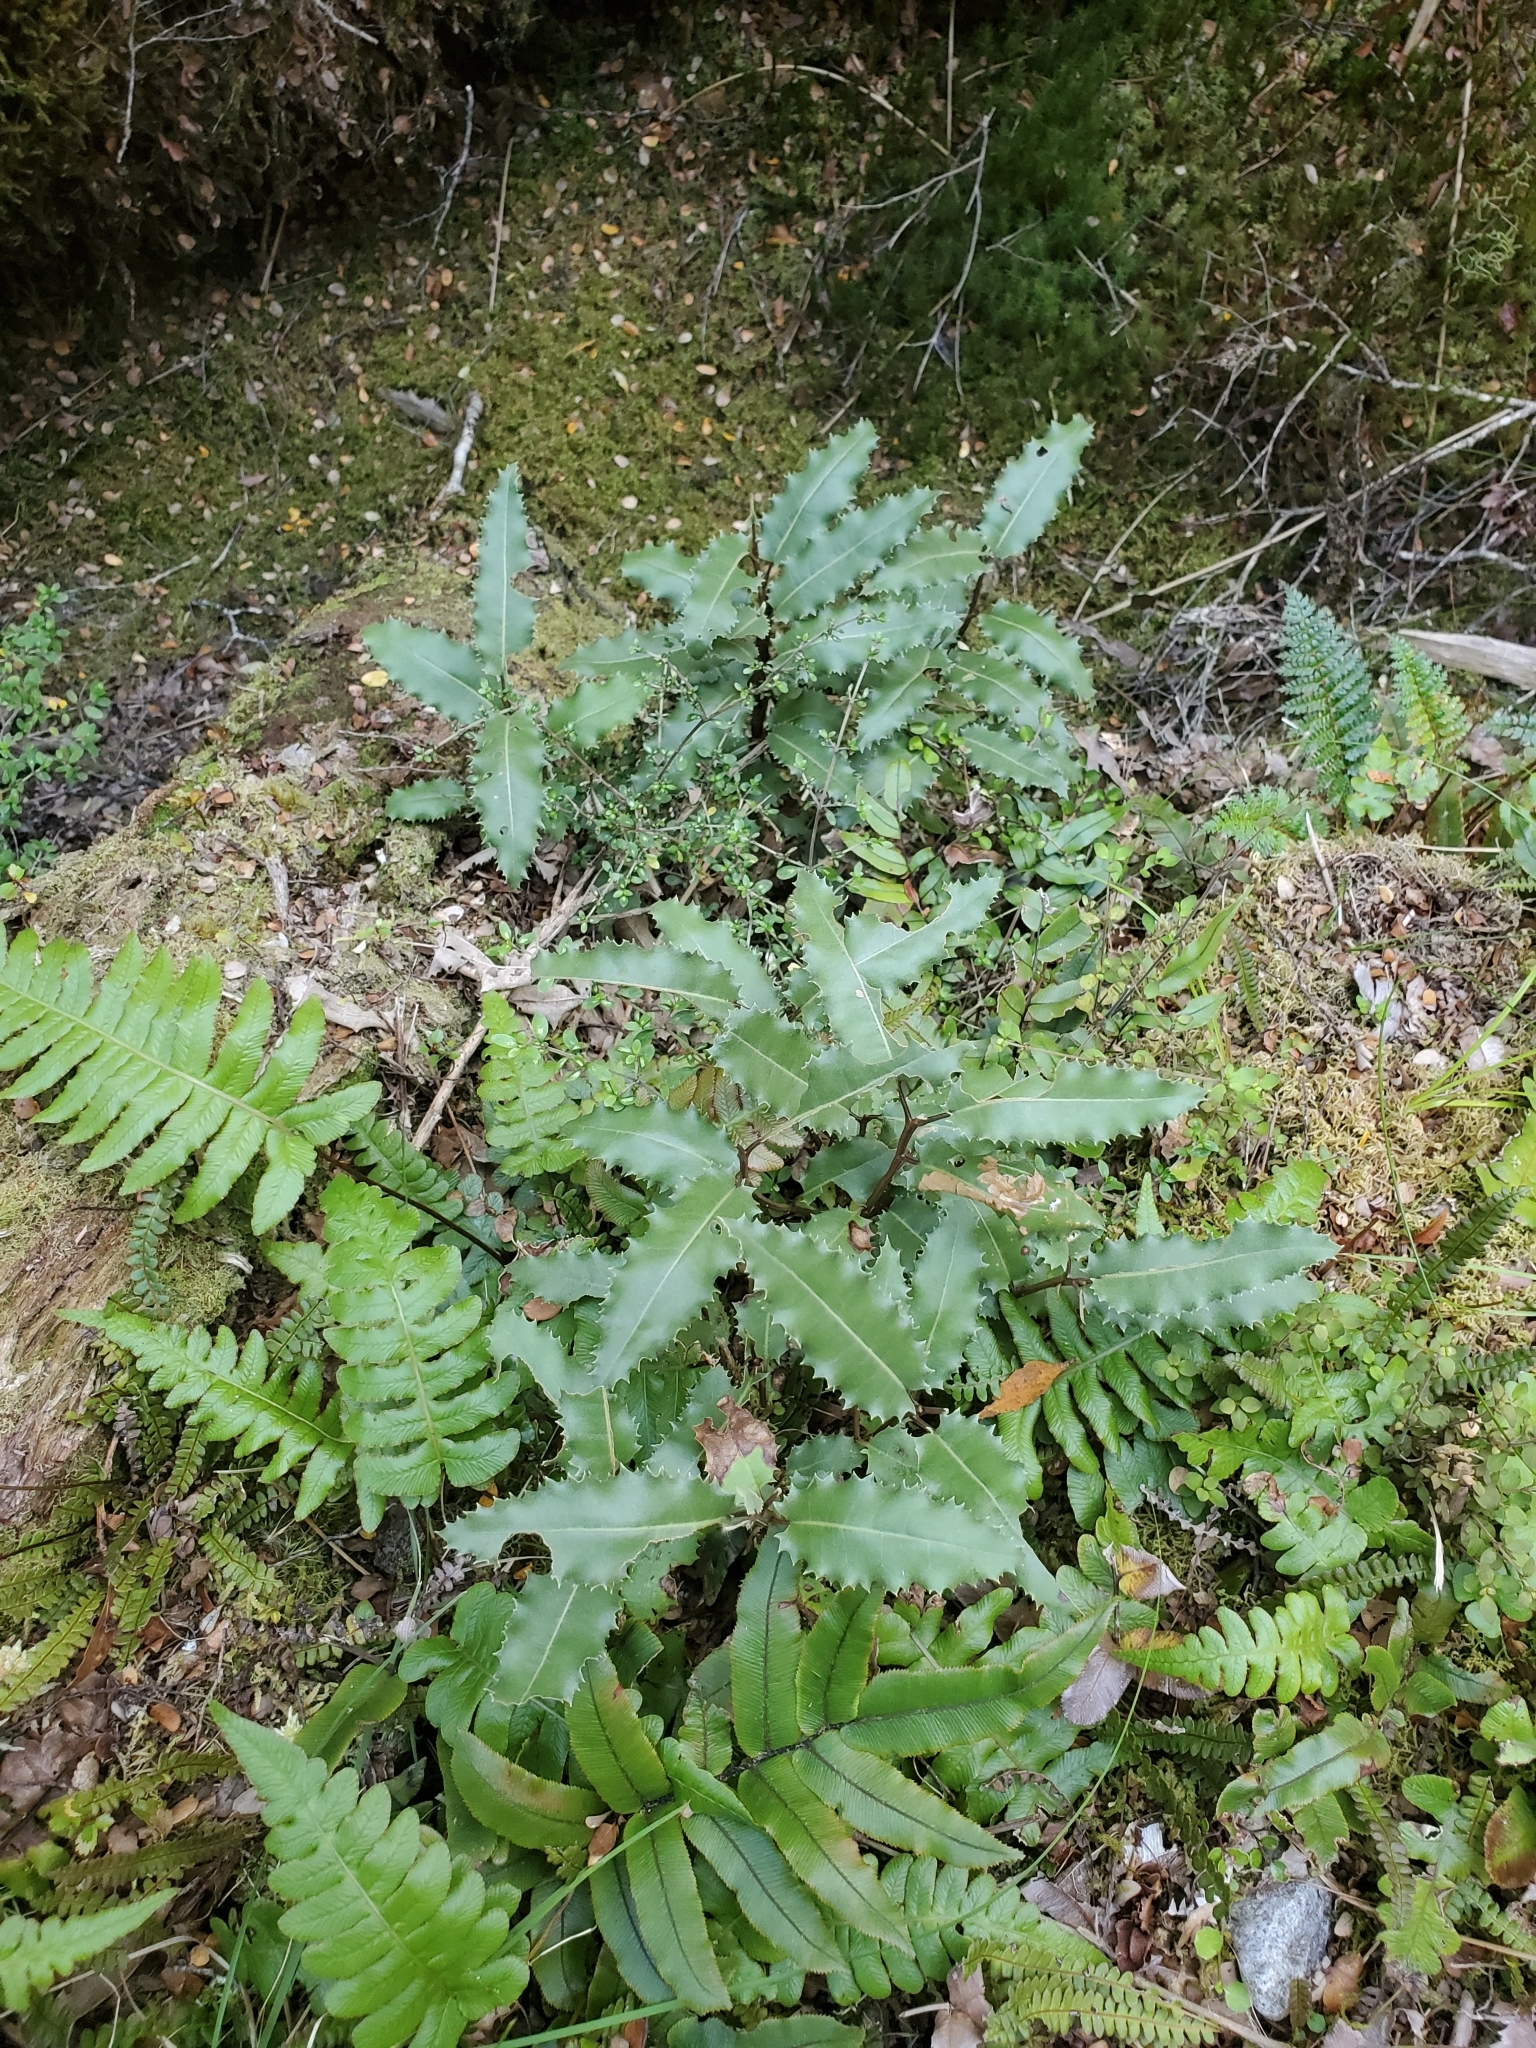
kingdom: Plantae
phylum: Tracheophyta
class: Magnoliopsida
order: Asterales
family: Asteraceae
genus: Olearia
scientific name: Olearia ilicifolia
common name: Maori-holly
